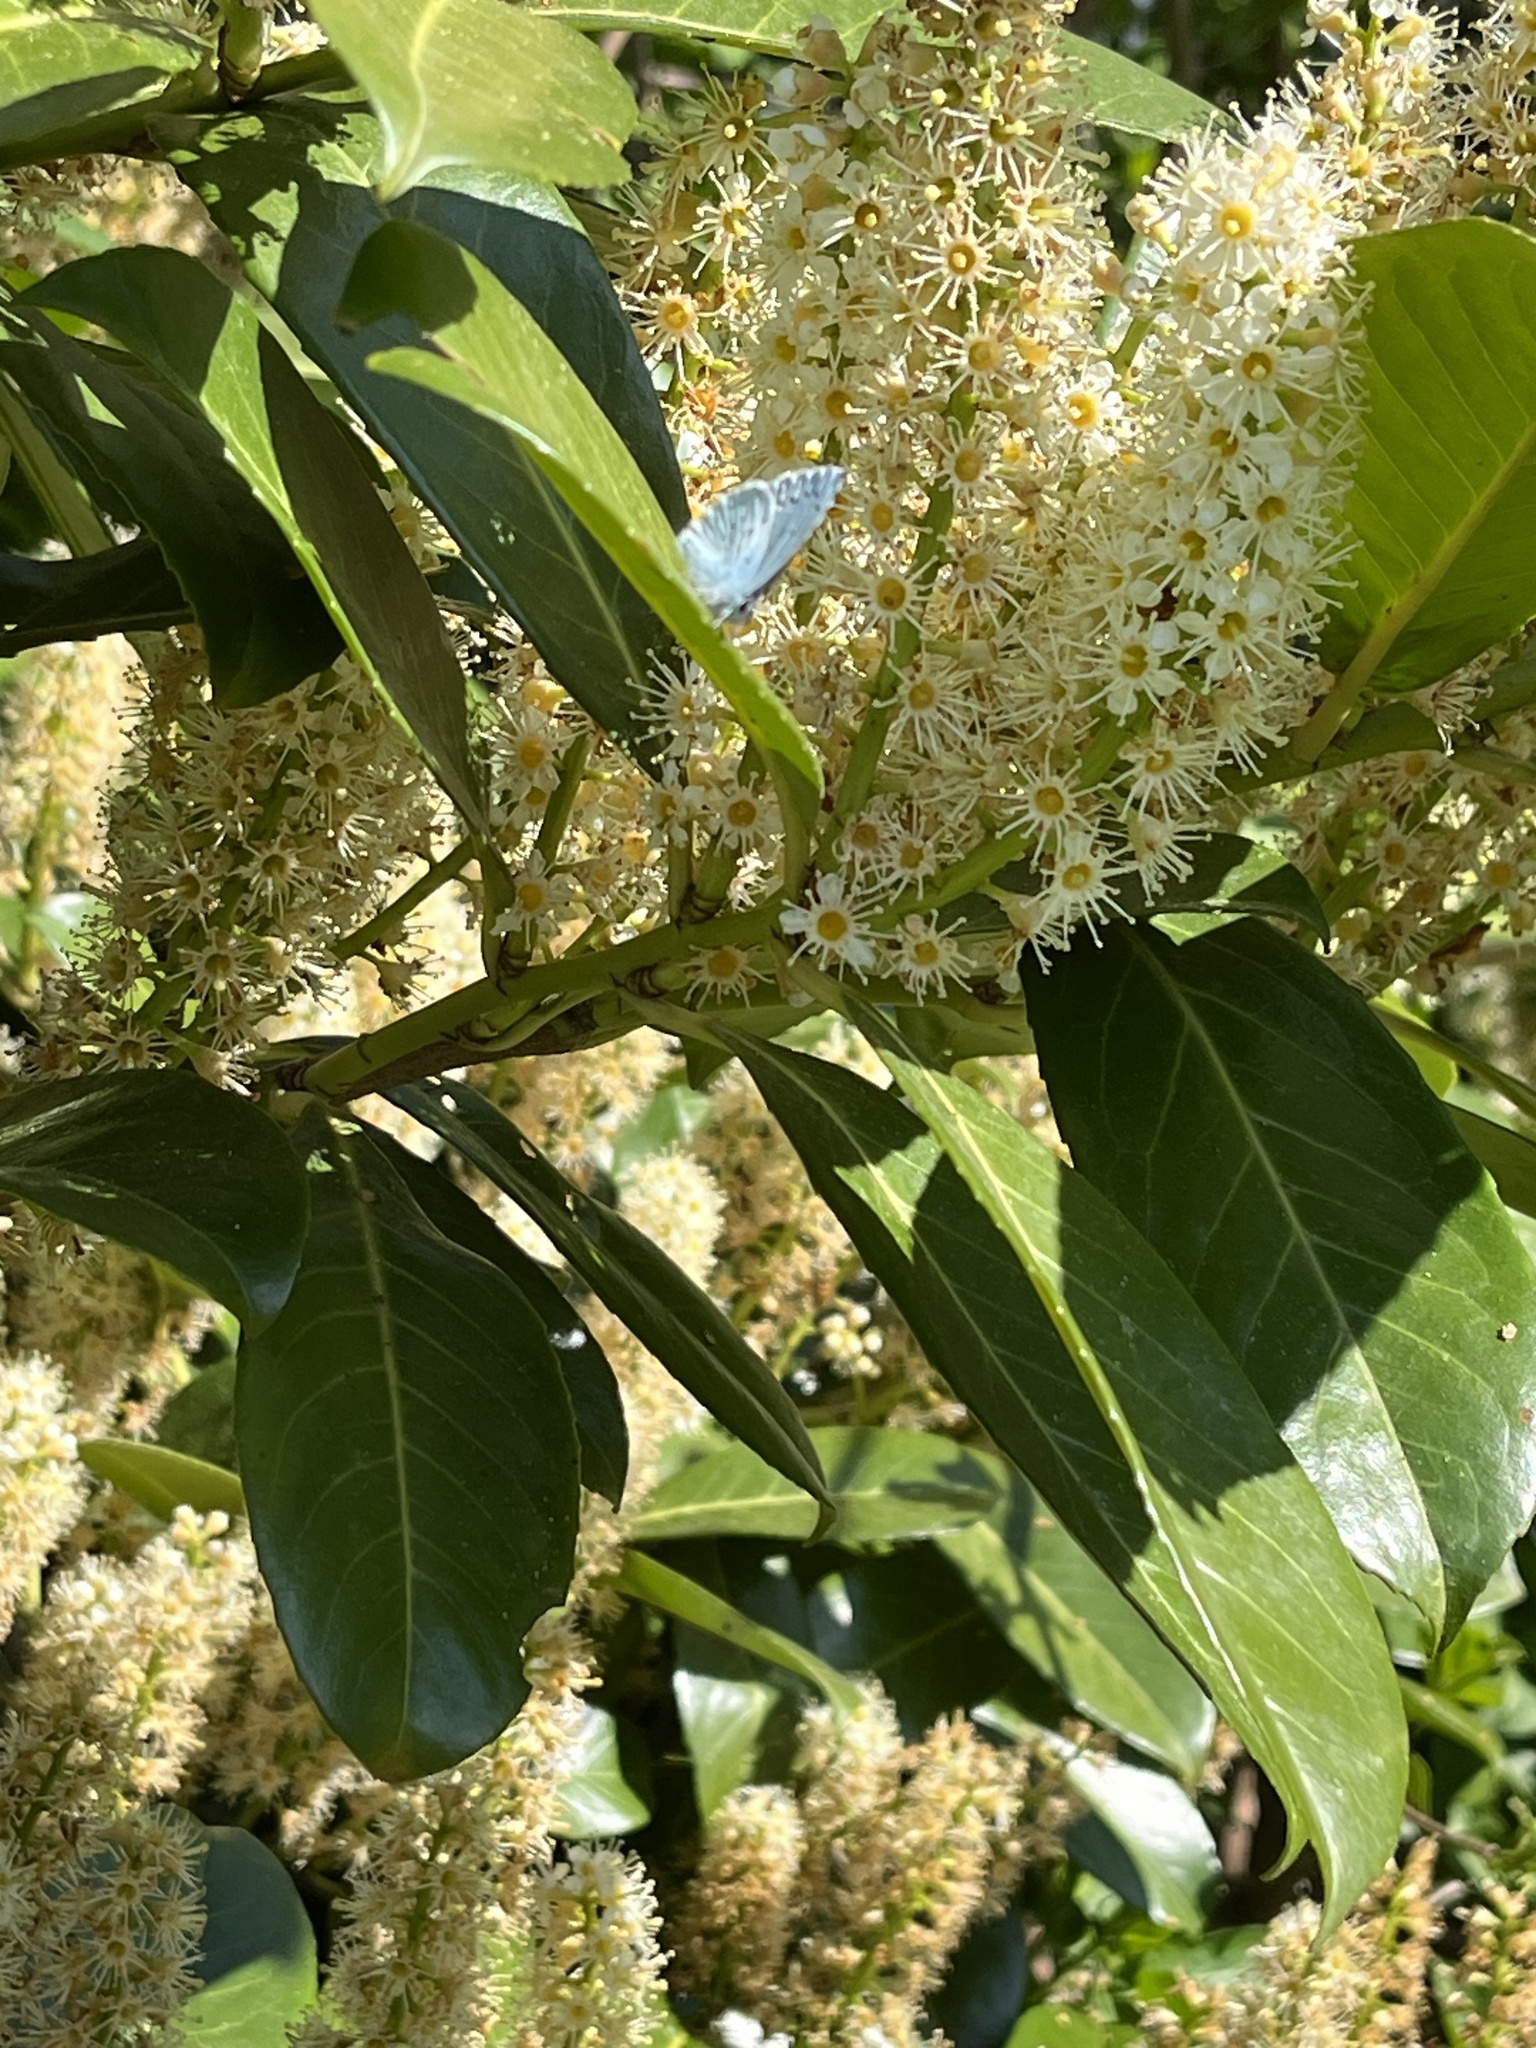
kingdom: Animalia
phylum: Arthropoda
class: Insecta
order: Lepidoptera
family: Lycaenidae
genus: Celastrina
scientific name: Celastrina argiolus
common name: Holly blue
